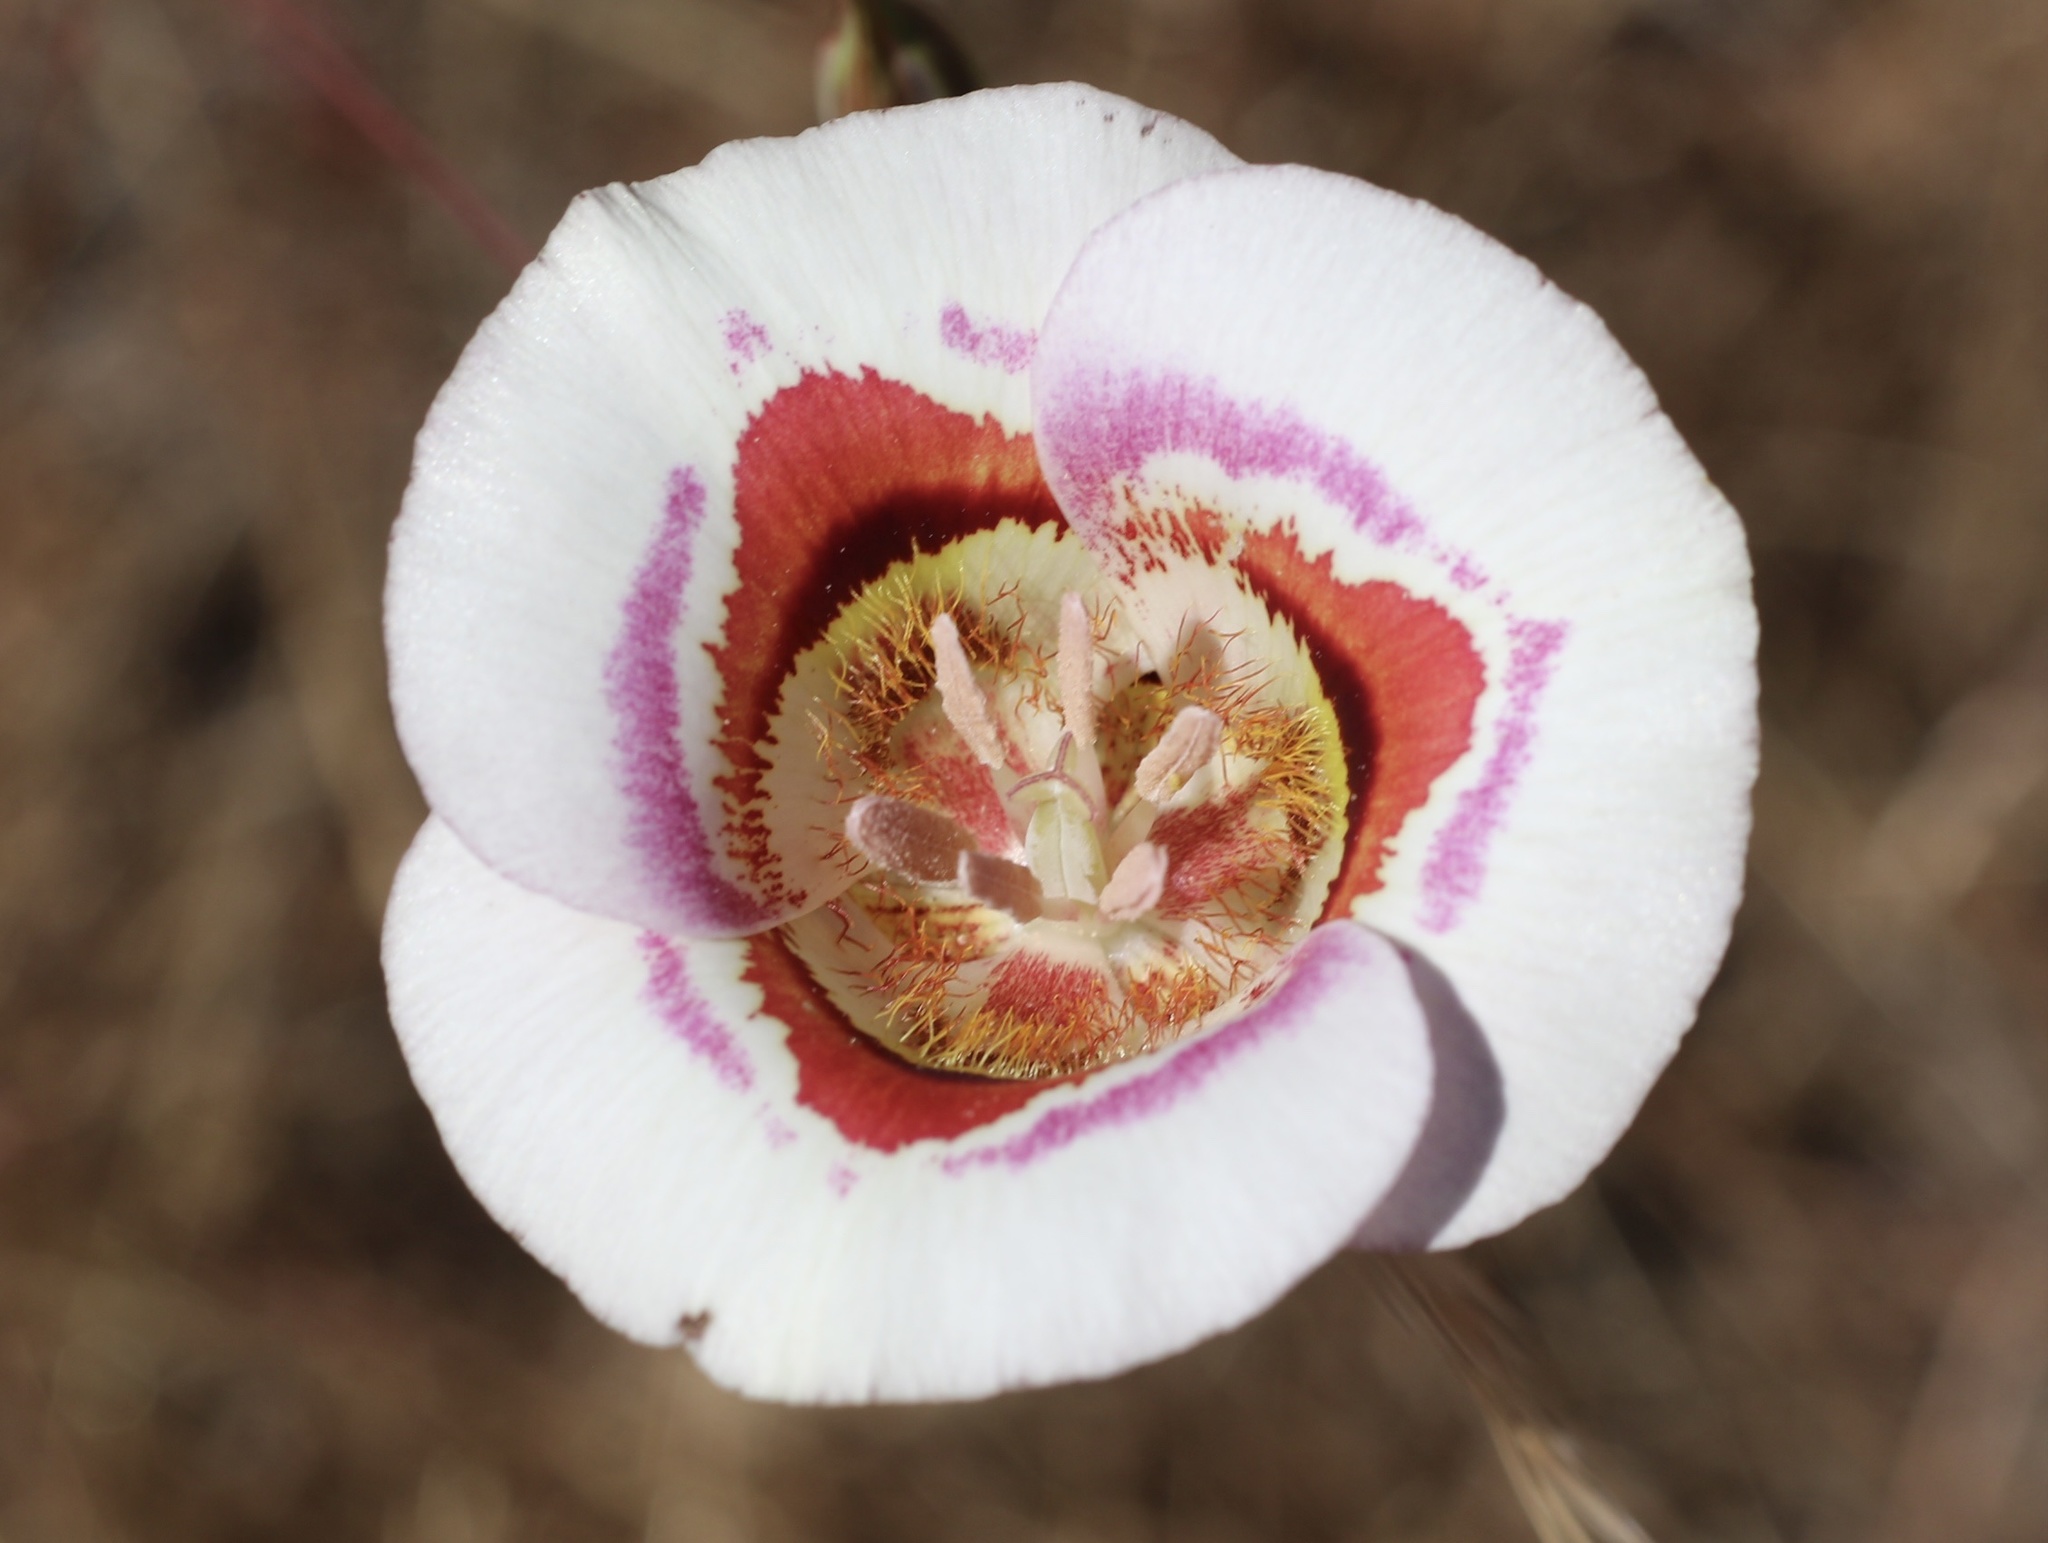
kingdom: Plantae
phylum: Tracheophyta
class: Liliopsida
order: Liliales
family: Liliaceae
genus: Calochortus
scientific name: Calochortus argillosus
